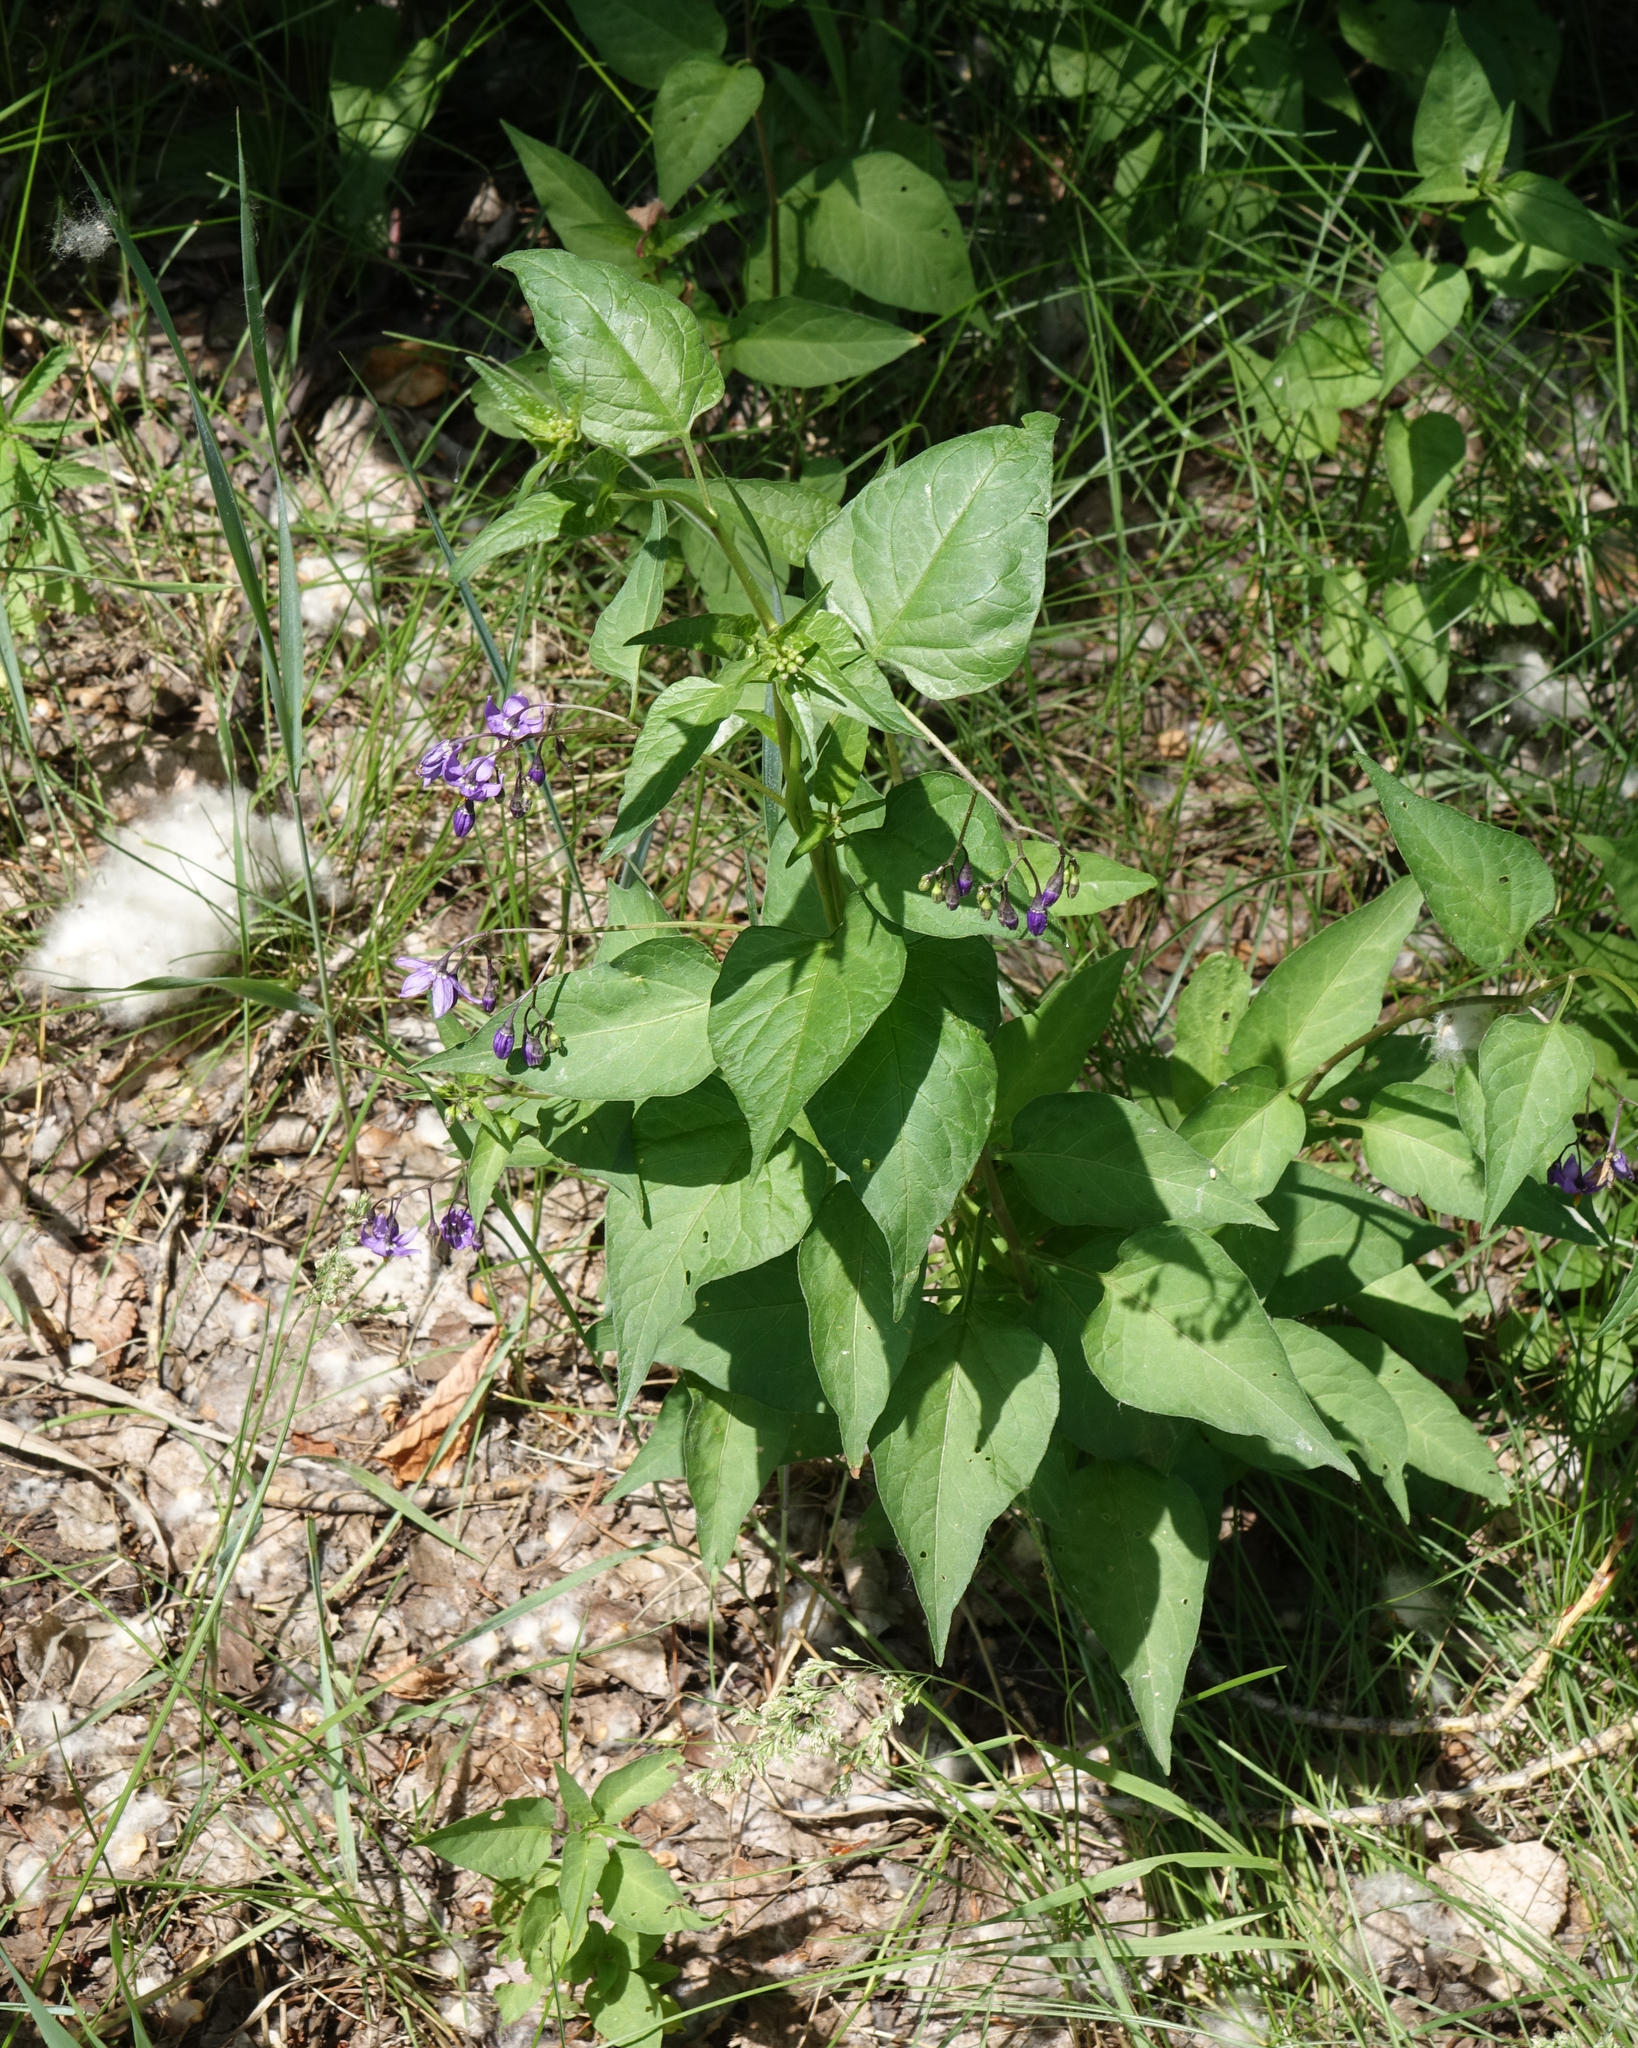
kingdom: Plantae
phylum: Tracheophyta
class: Magnoliopsida
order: Solanales
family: Solanaceae
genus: Solanum
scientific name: Solanum dulcamara
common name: Climbing nightshade
